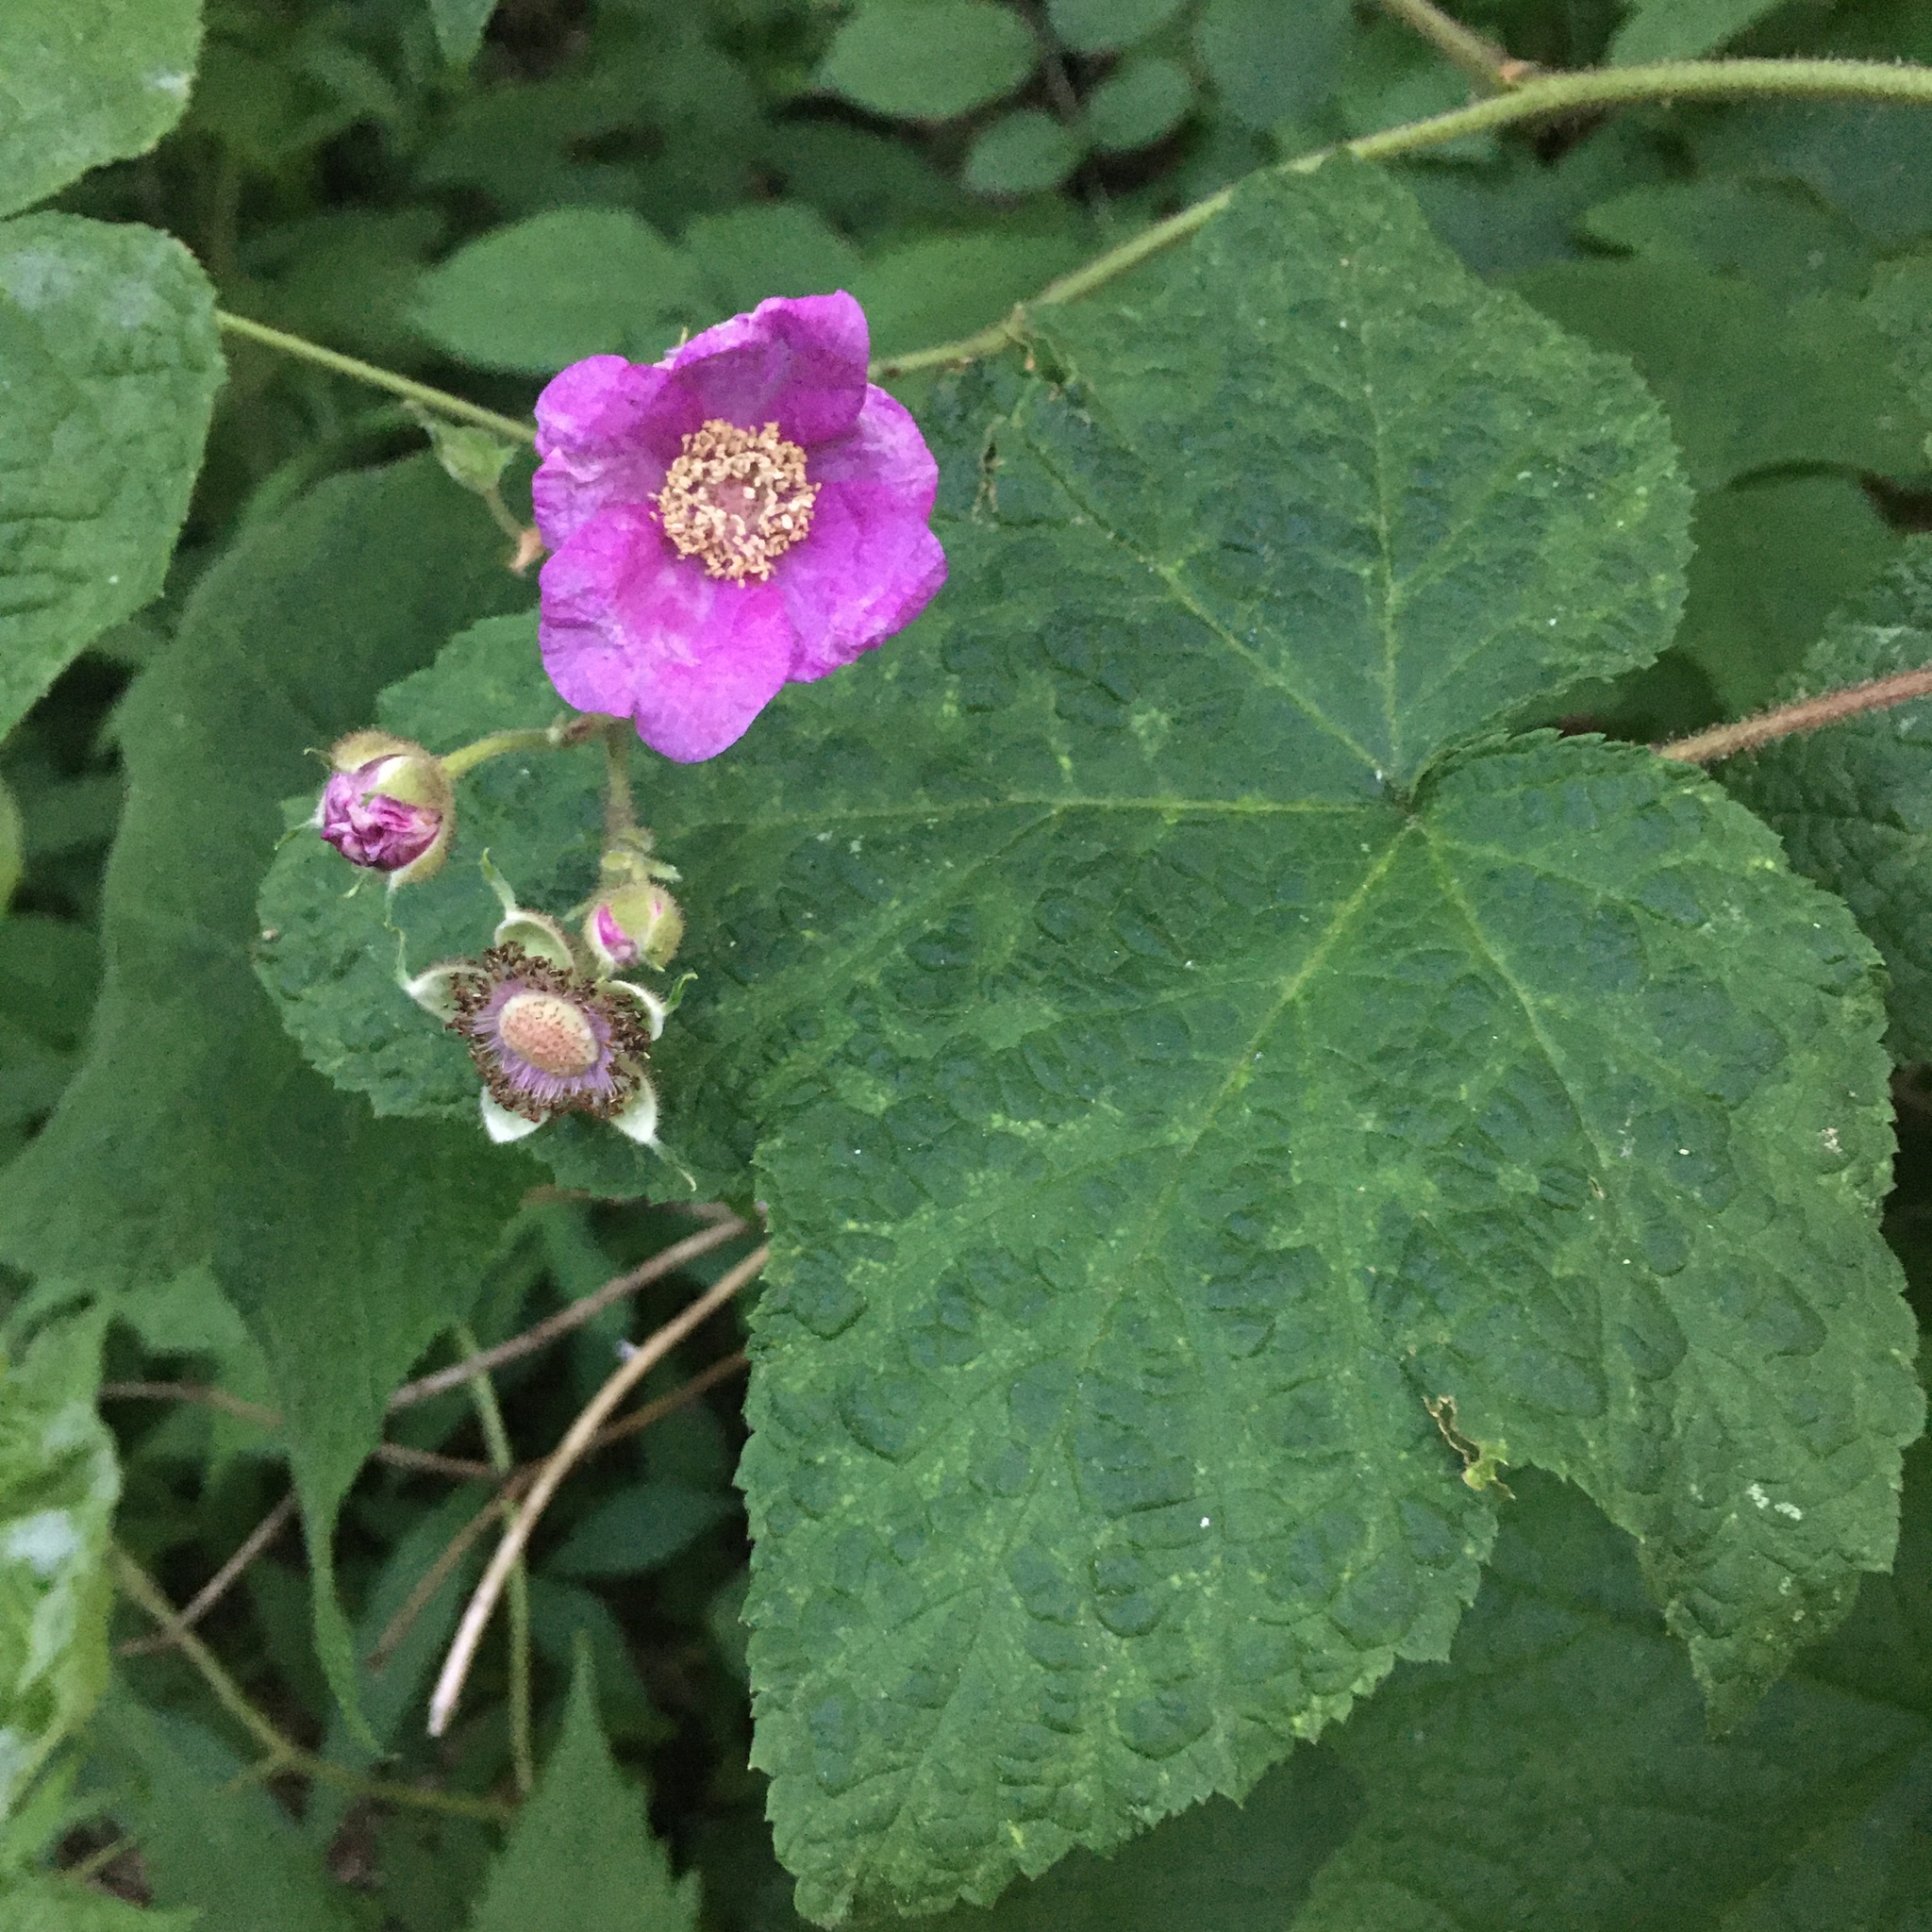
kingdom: Plantae
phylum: Tracheophyta
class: Magnoliopsida
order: Rosales
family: Rosaceae
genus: Rubus
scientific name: Rubus odoratus
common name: Purple-flowered raspberry
